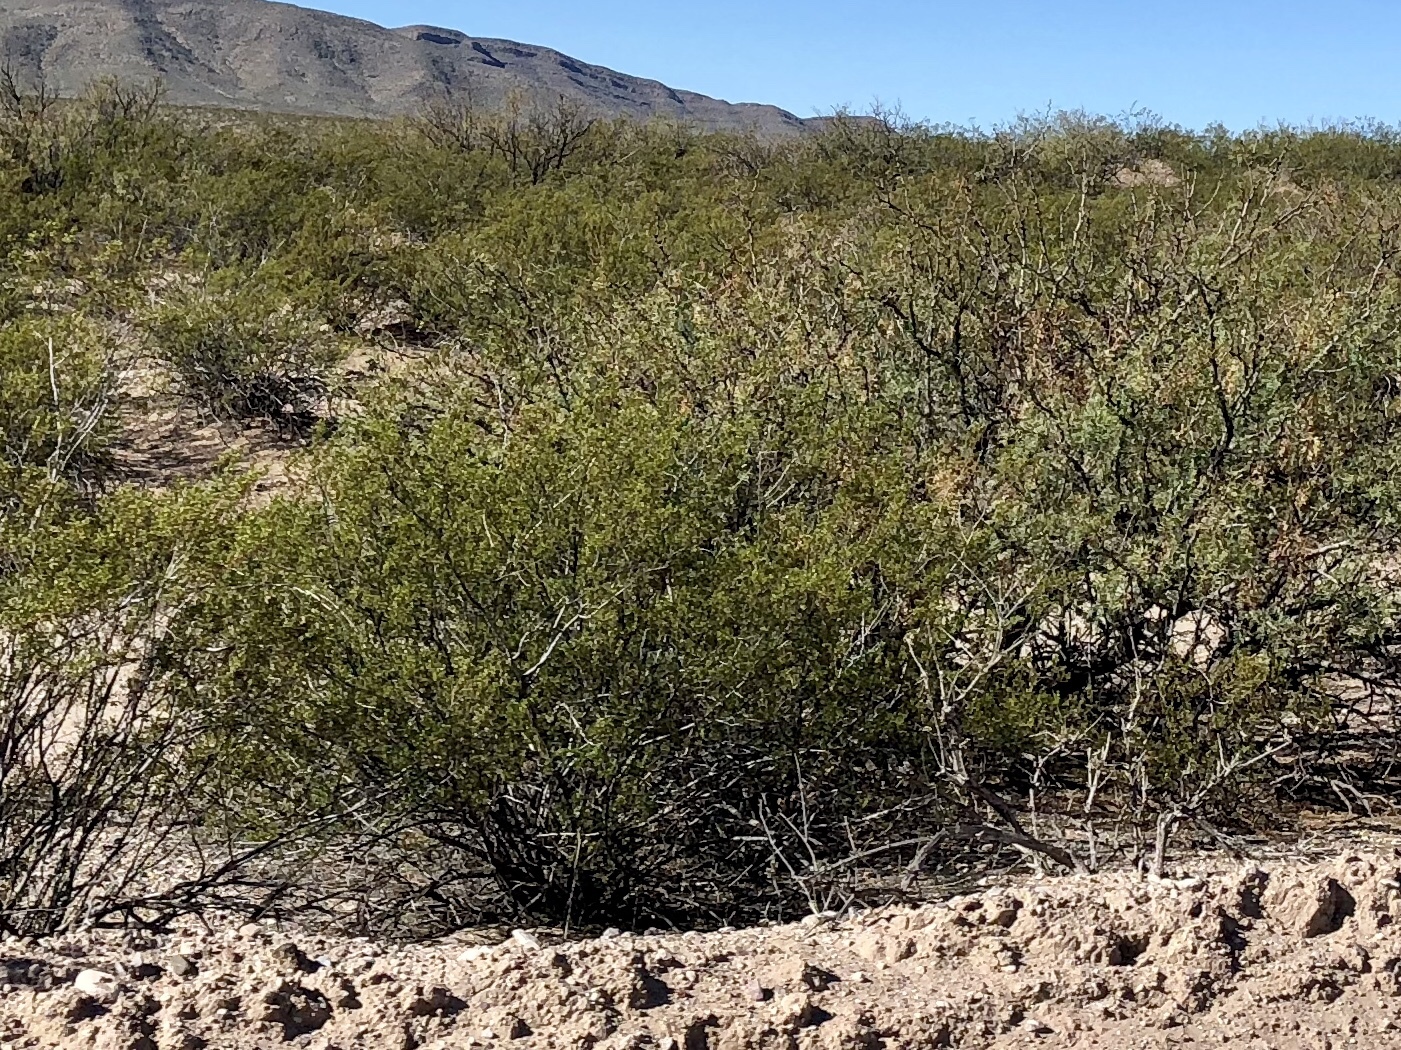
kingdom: Plantae
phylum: Tracheophyta
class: Magnoliopsida
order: Zygophyllales
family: Zygophyllaceae
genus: Larrea
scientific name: Larrea tridentata
